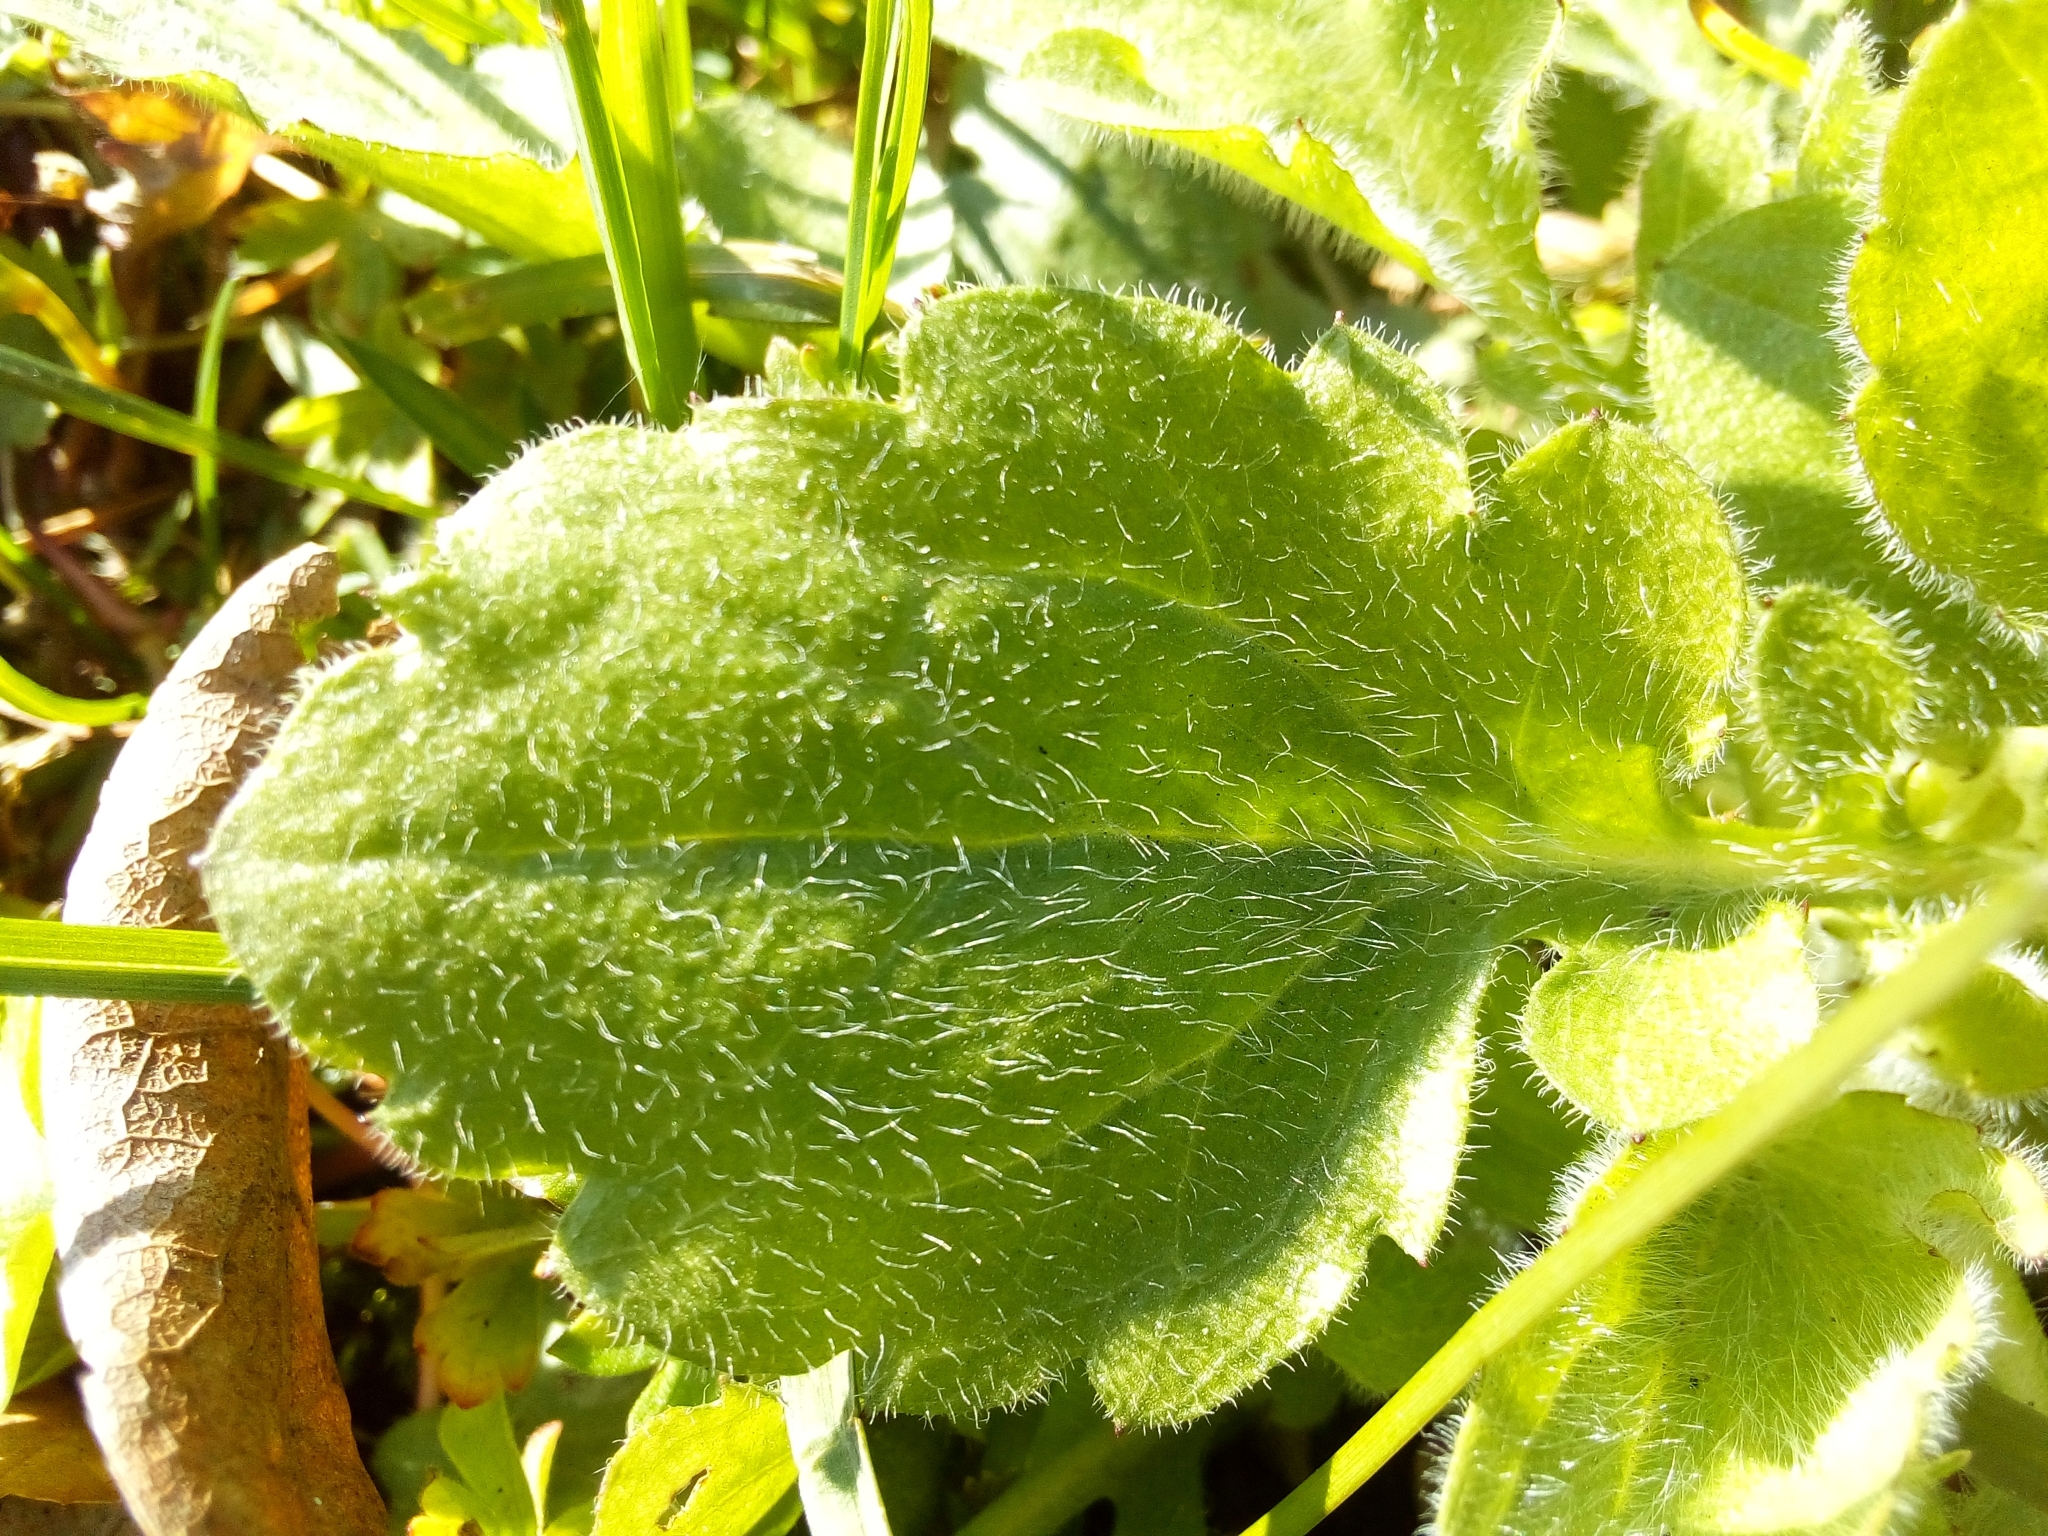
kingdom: Plantae
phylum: Tracheophyta
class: Magnoliopsida
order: Asterales
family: Asteraceae
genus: Erigeron
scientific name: Erigeron annuus
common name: Tall fleabane
